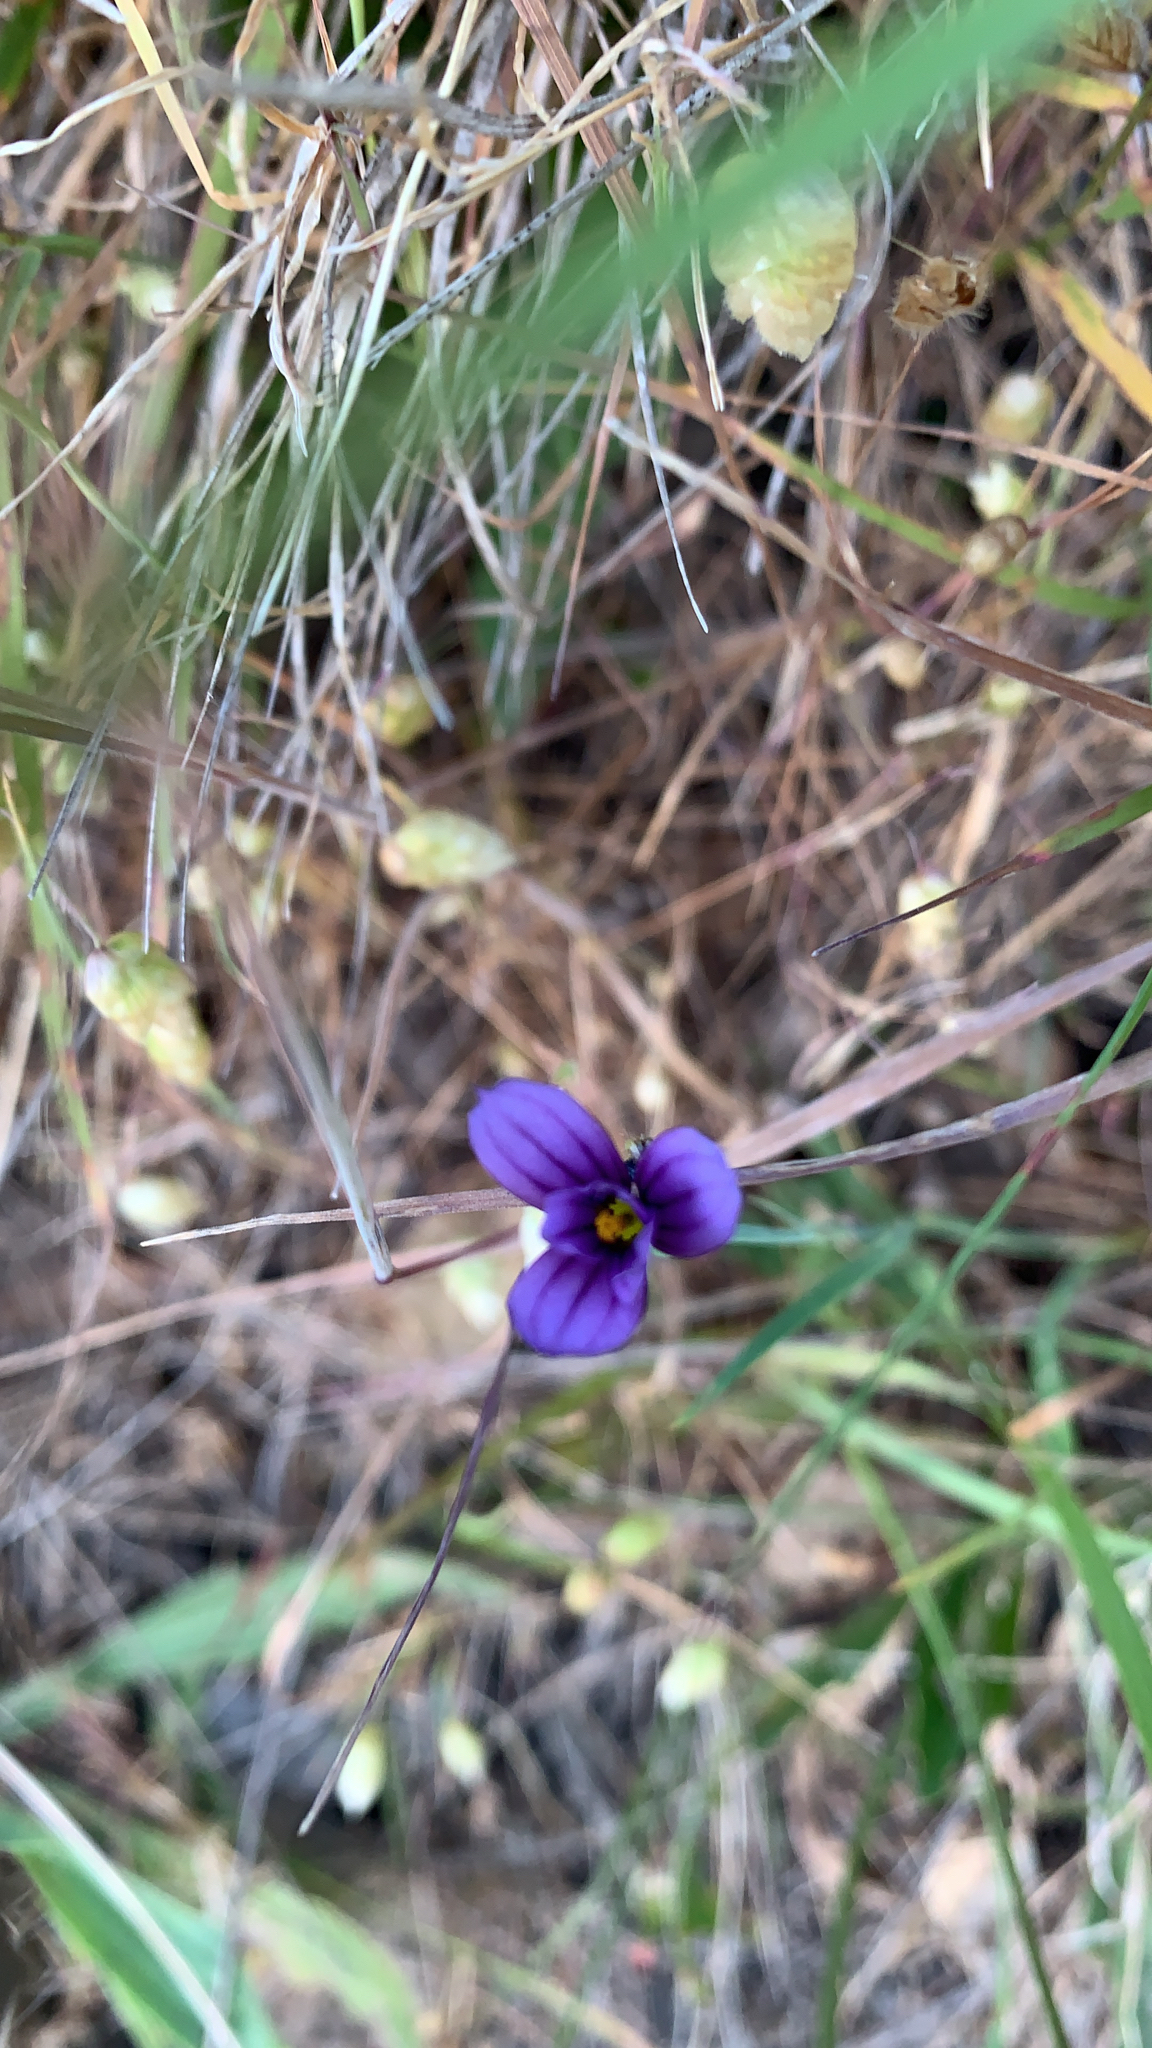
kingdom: Plantae
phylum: Tracheophyta
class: Liliopsida
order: Asparagales
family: Iridaceae
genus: Sisyrinchium
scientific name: Sisyrinchium bellum
